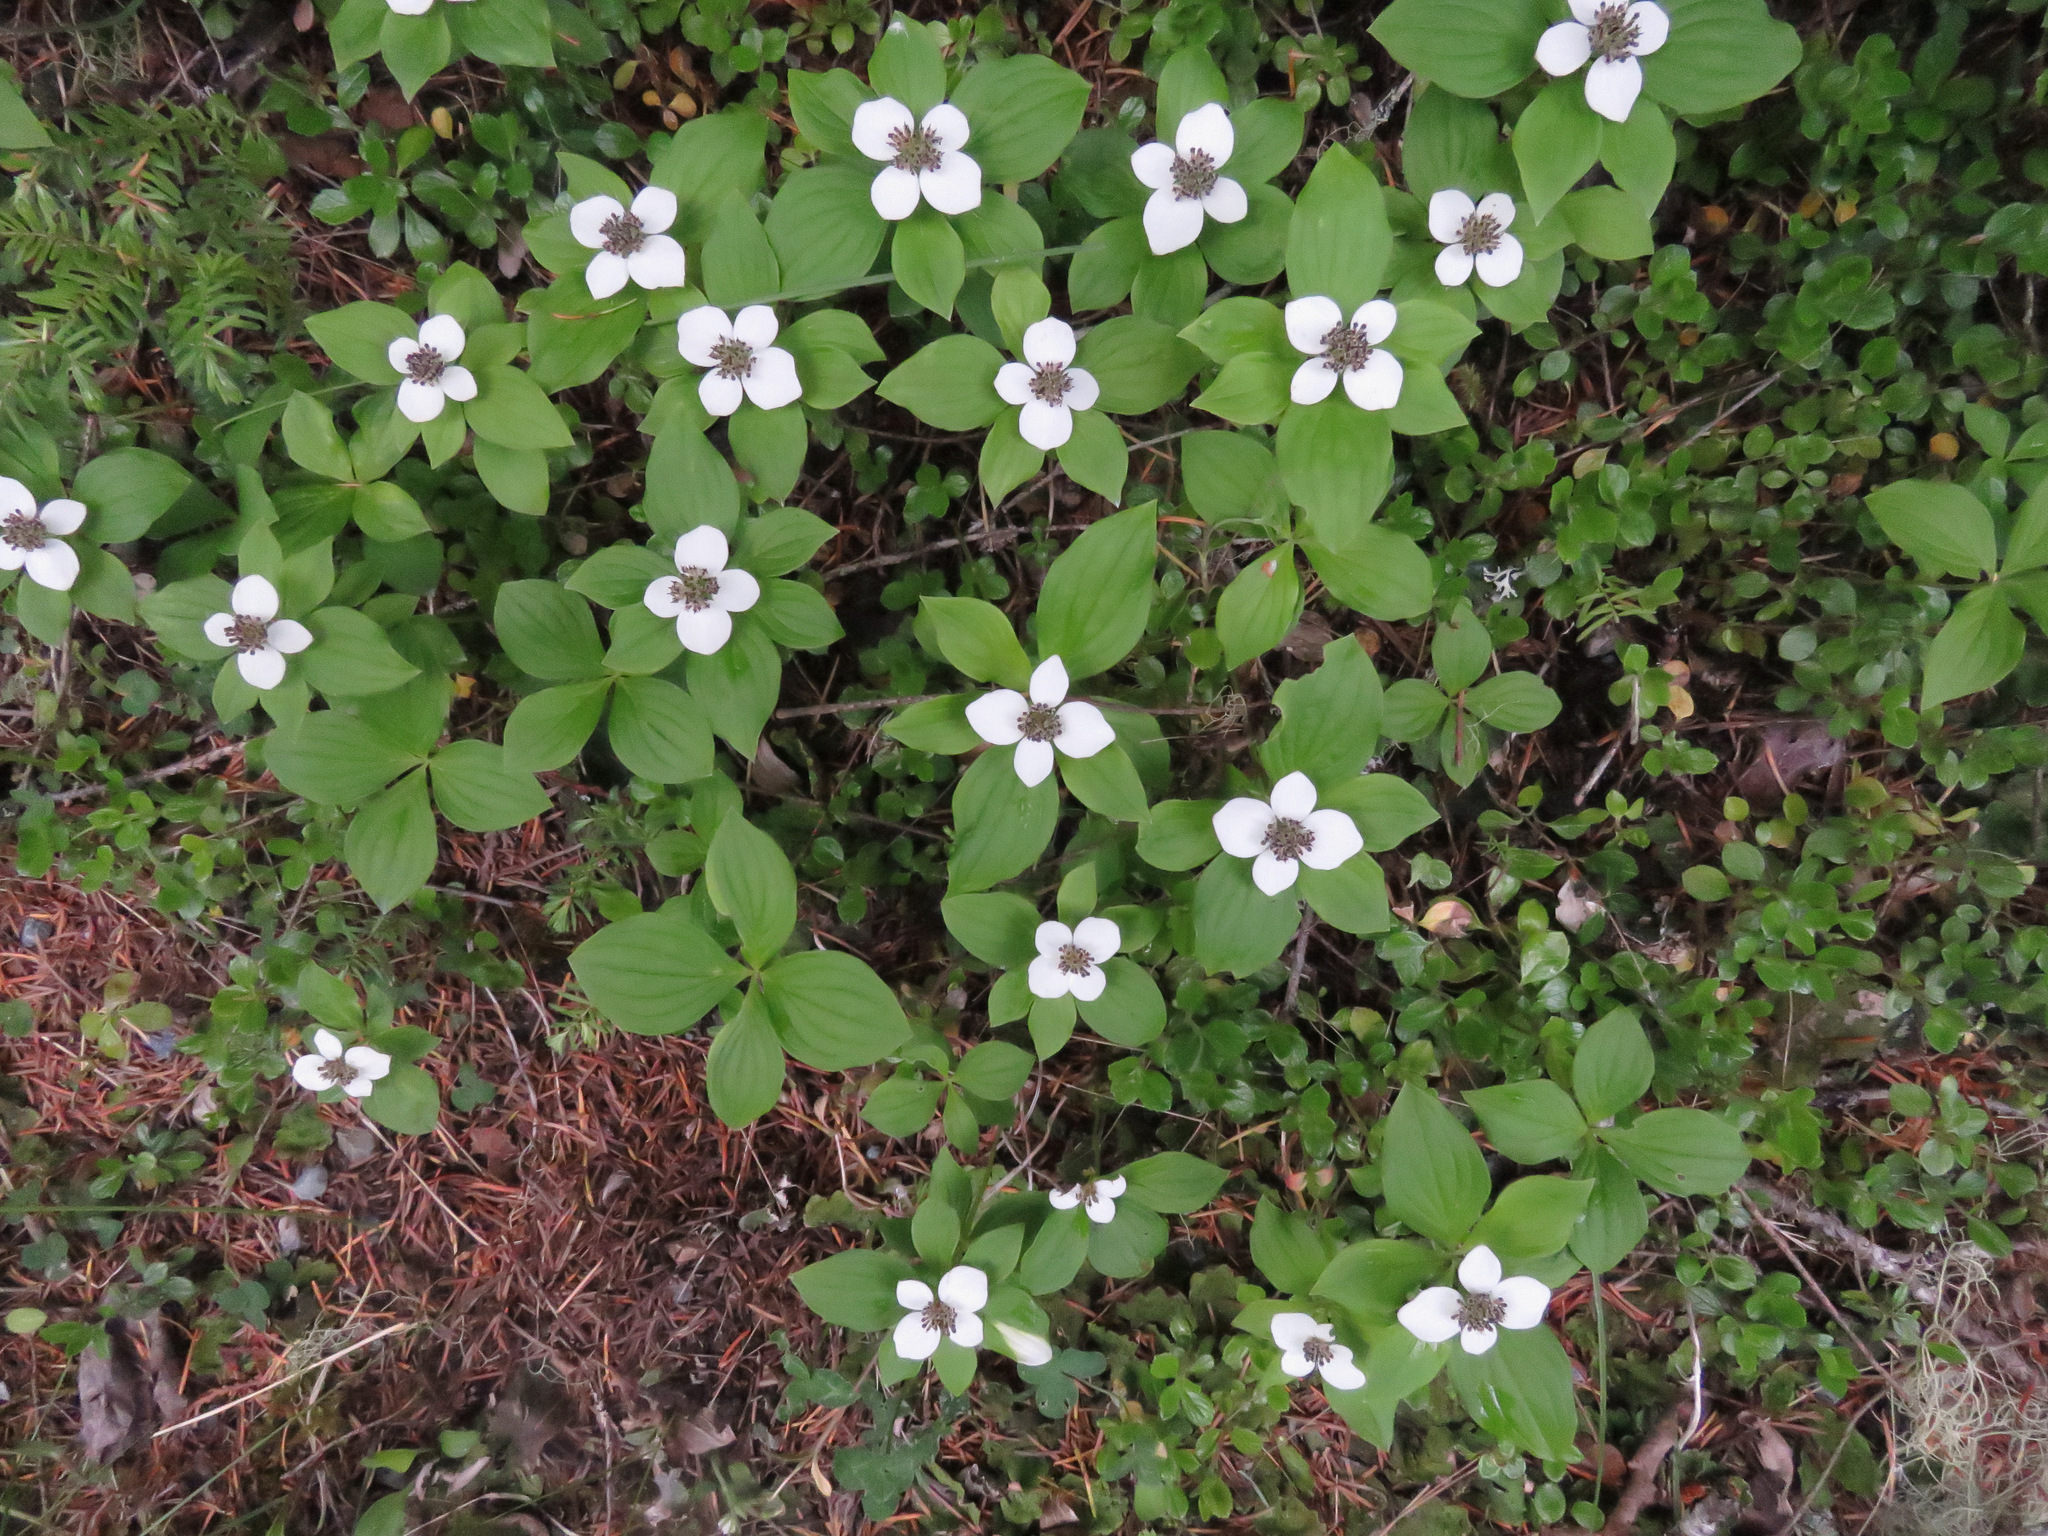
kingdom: Plantae
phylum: Tracheophyta
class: Magnoliopsida
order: Cornales
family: Cornaceae
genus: Cornus
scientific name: Cornus unalaschkensis
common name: Alaska bunchberry
